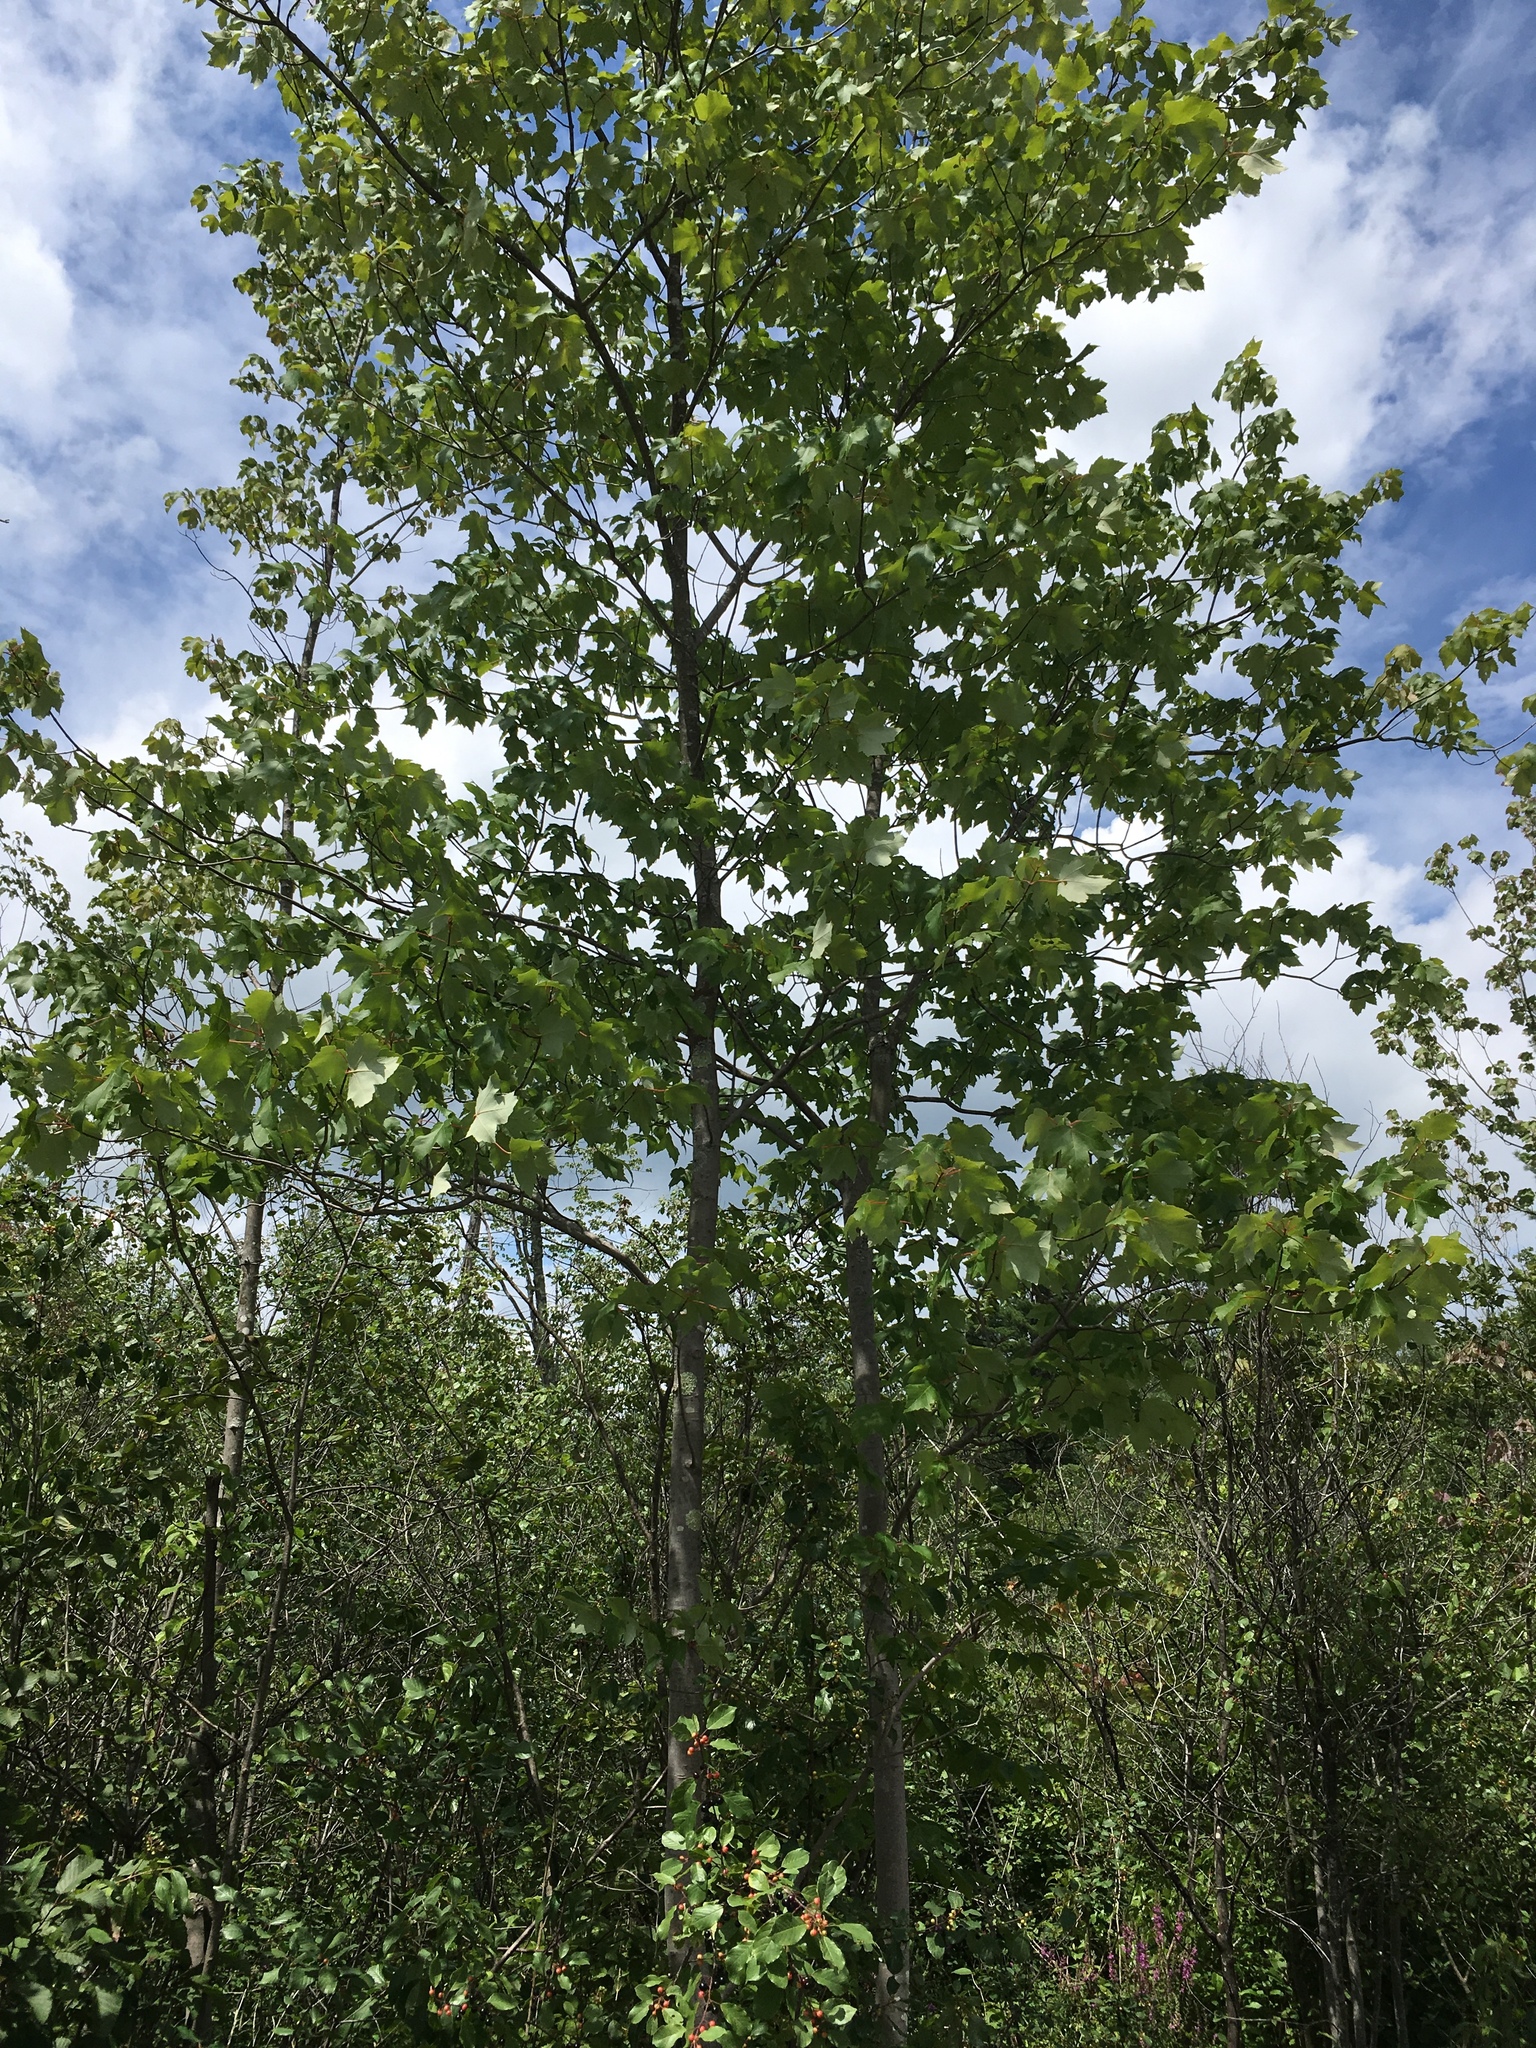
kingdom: Plantae
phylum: Tracheophyta
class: Magnoliopsida
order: Sapindales
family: Sapindaceae
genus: Acer
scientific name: Acer rubrum
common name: Red maple
